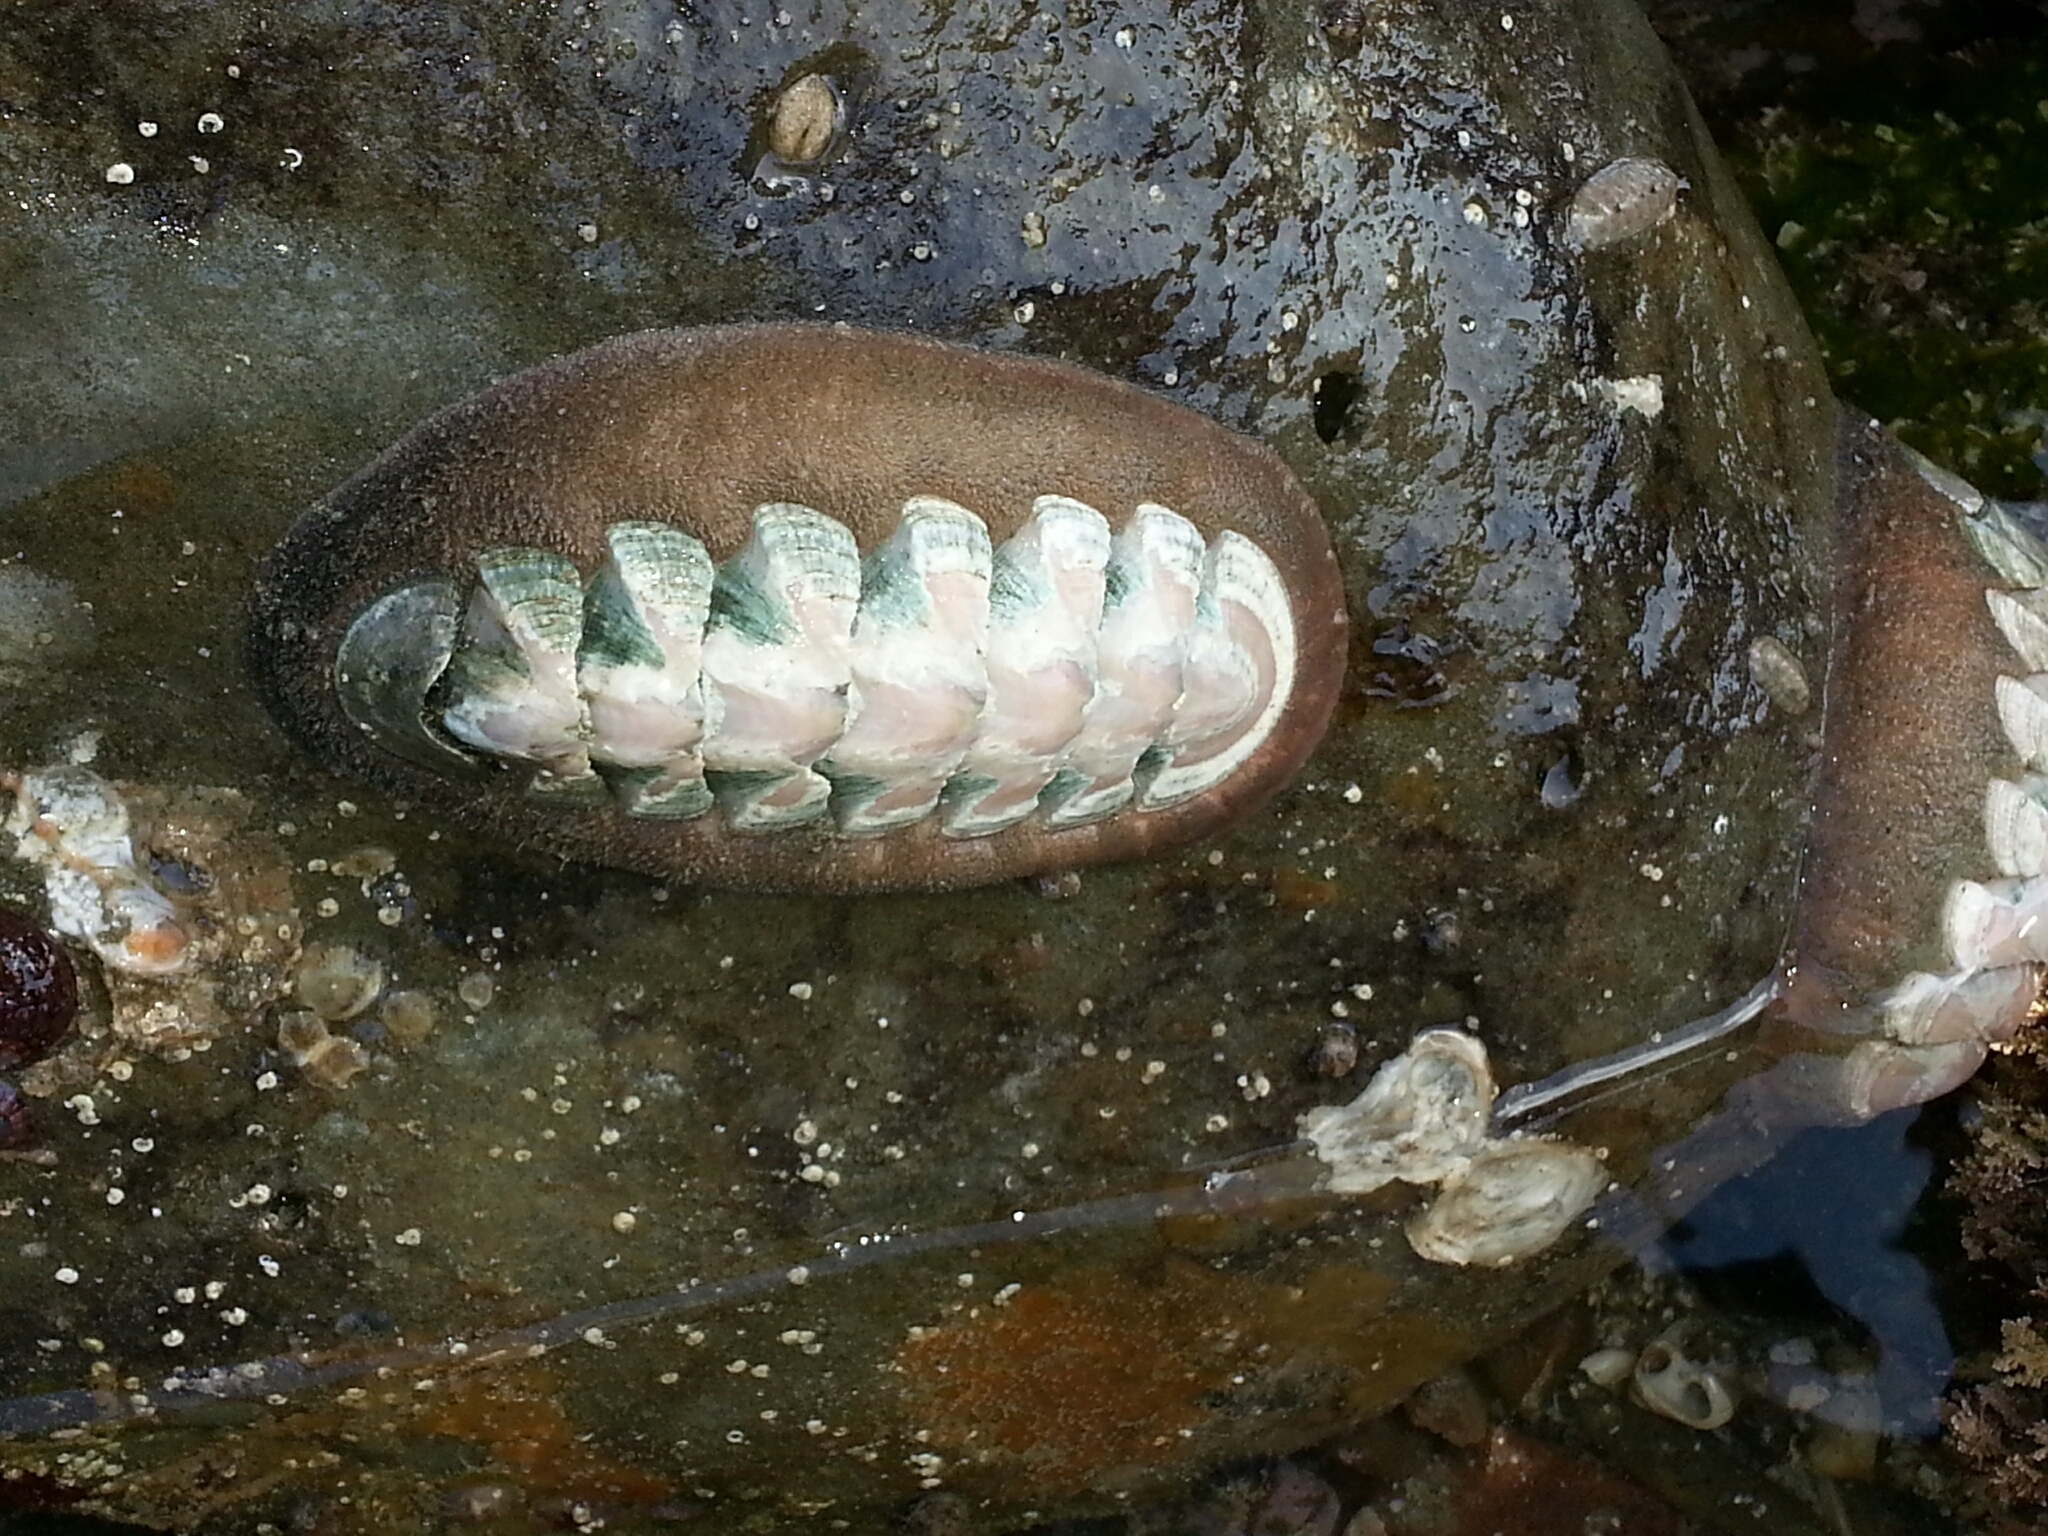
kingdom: Animalia
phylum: Mollusca
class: Polyplacophora
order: Chitonida
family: Ischnochitonidae
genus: Stenoplax
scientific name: Stenoplax conspicua
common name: Conspicuous chiton
